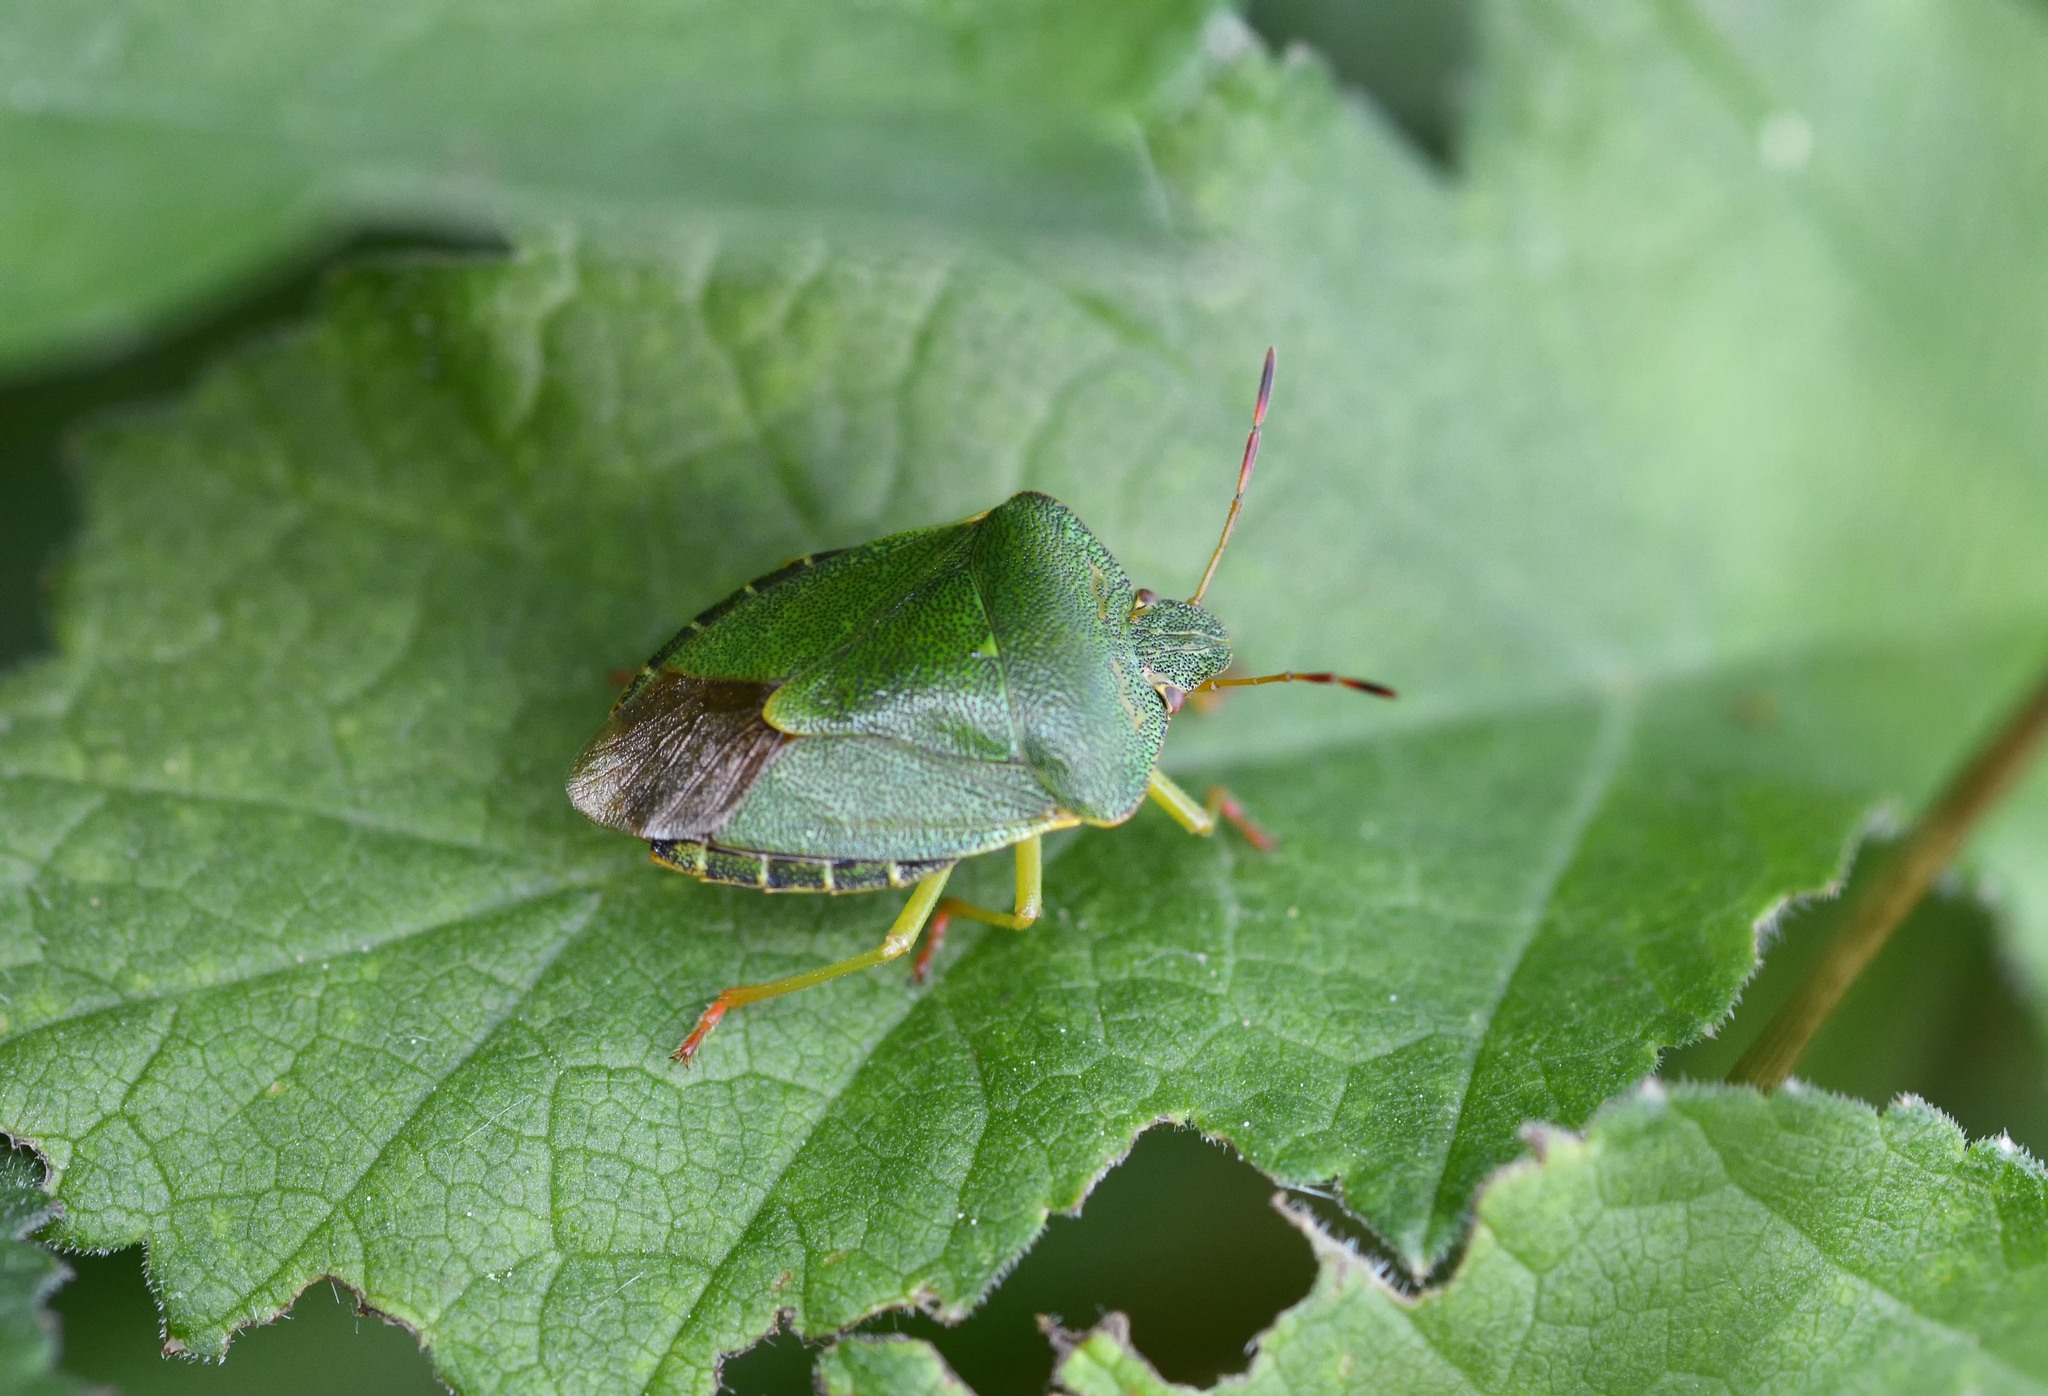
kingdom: Animalia
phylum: Arthropoda
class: Insecta
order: Hemiptera
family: Pentatomidae
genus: Palomena
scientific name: Palomena prasina
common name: Green shieldbug
